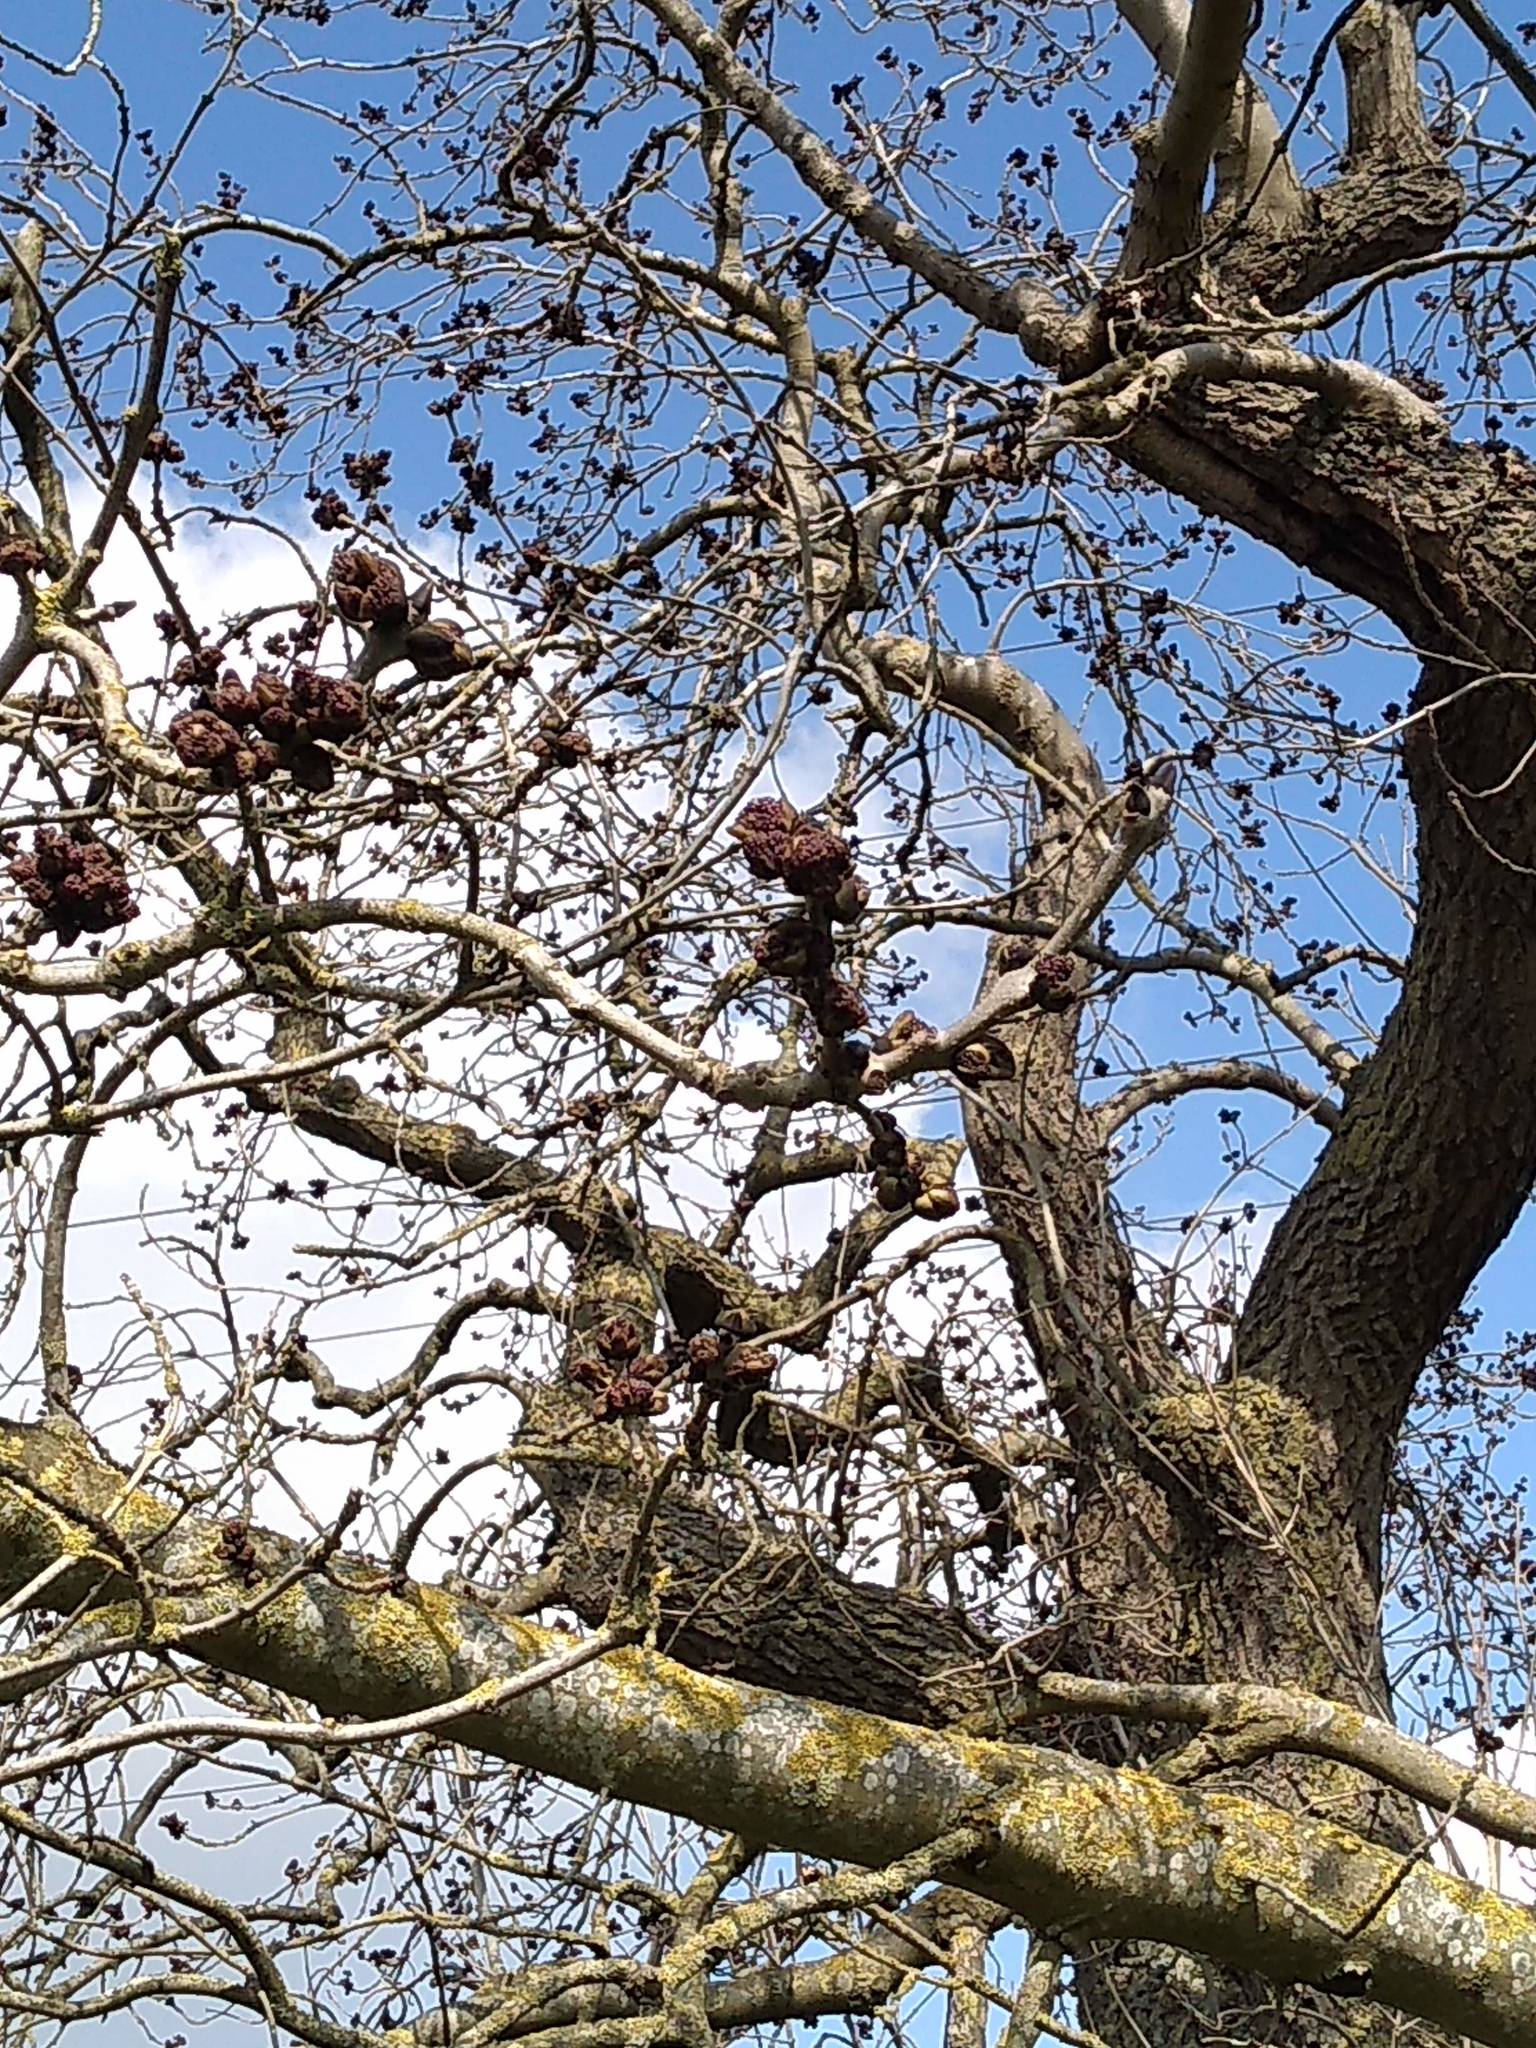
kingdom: Plantae
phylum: Tracheophyta
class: Magnoliopsida
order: Lamiales
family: Oleaceae
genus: Fraxinus
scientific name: Fraxinus excelsior
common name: European ash
